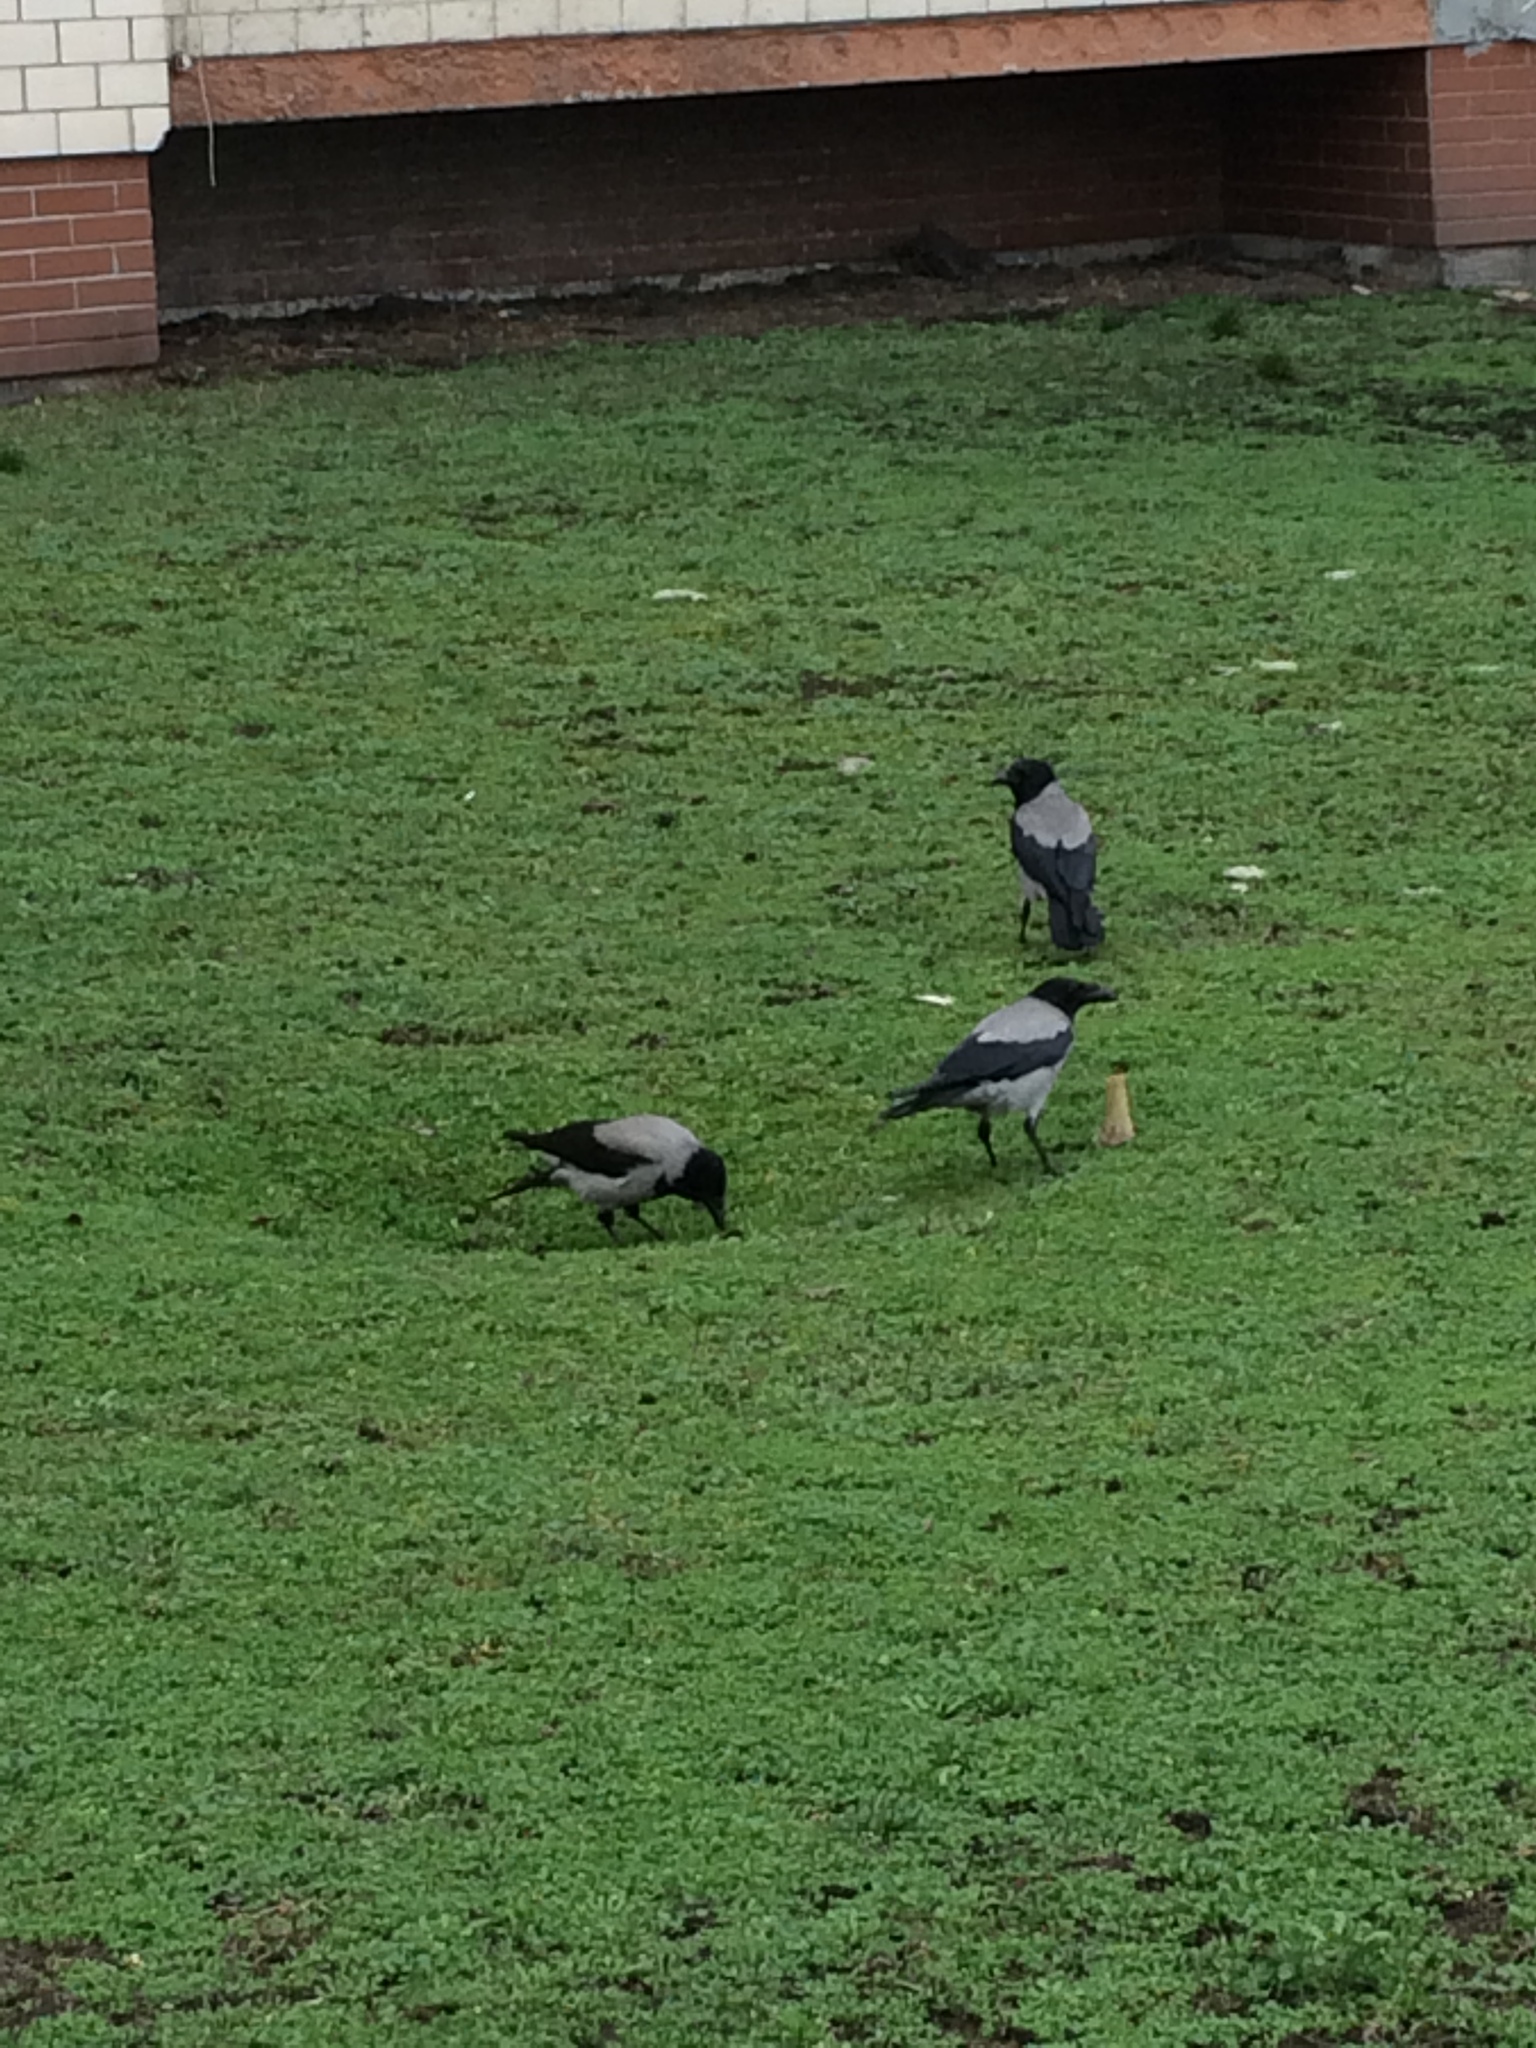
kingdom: Animalia
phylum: Chordata
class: Aves
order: Passeriformes
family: Corvidae
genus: Corvus
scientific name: Corvus cornix
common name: Hooded crow
